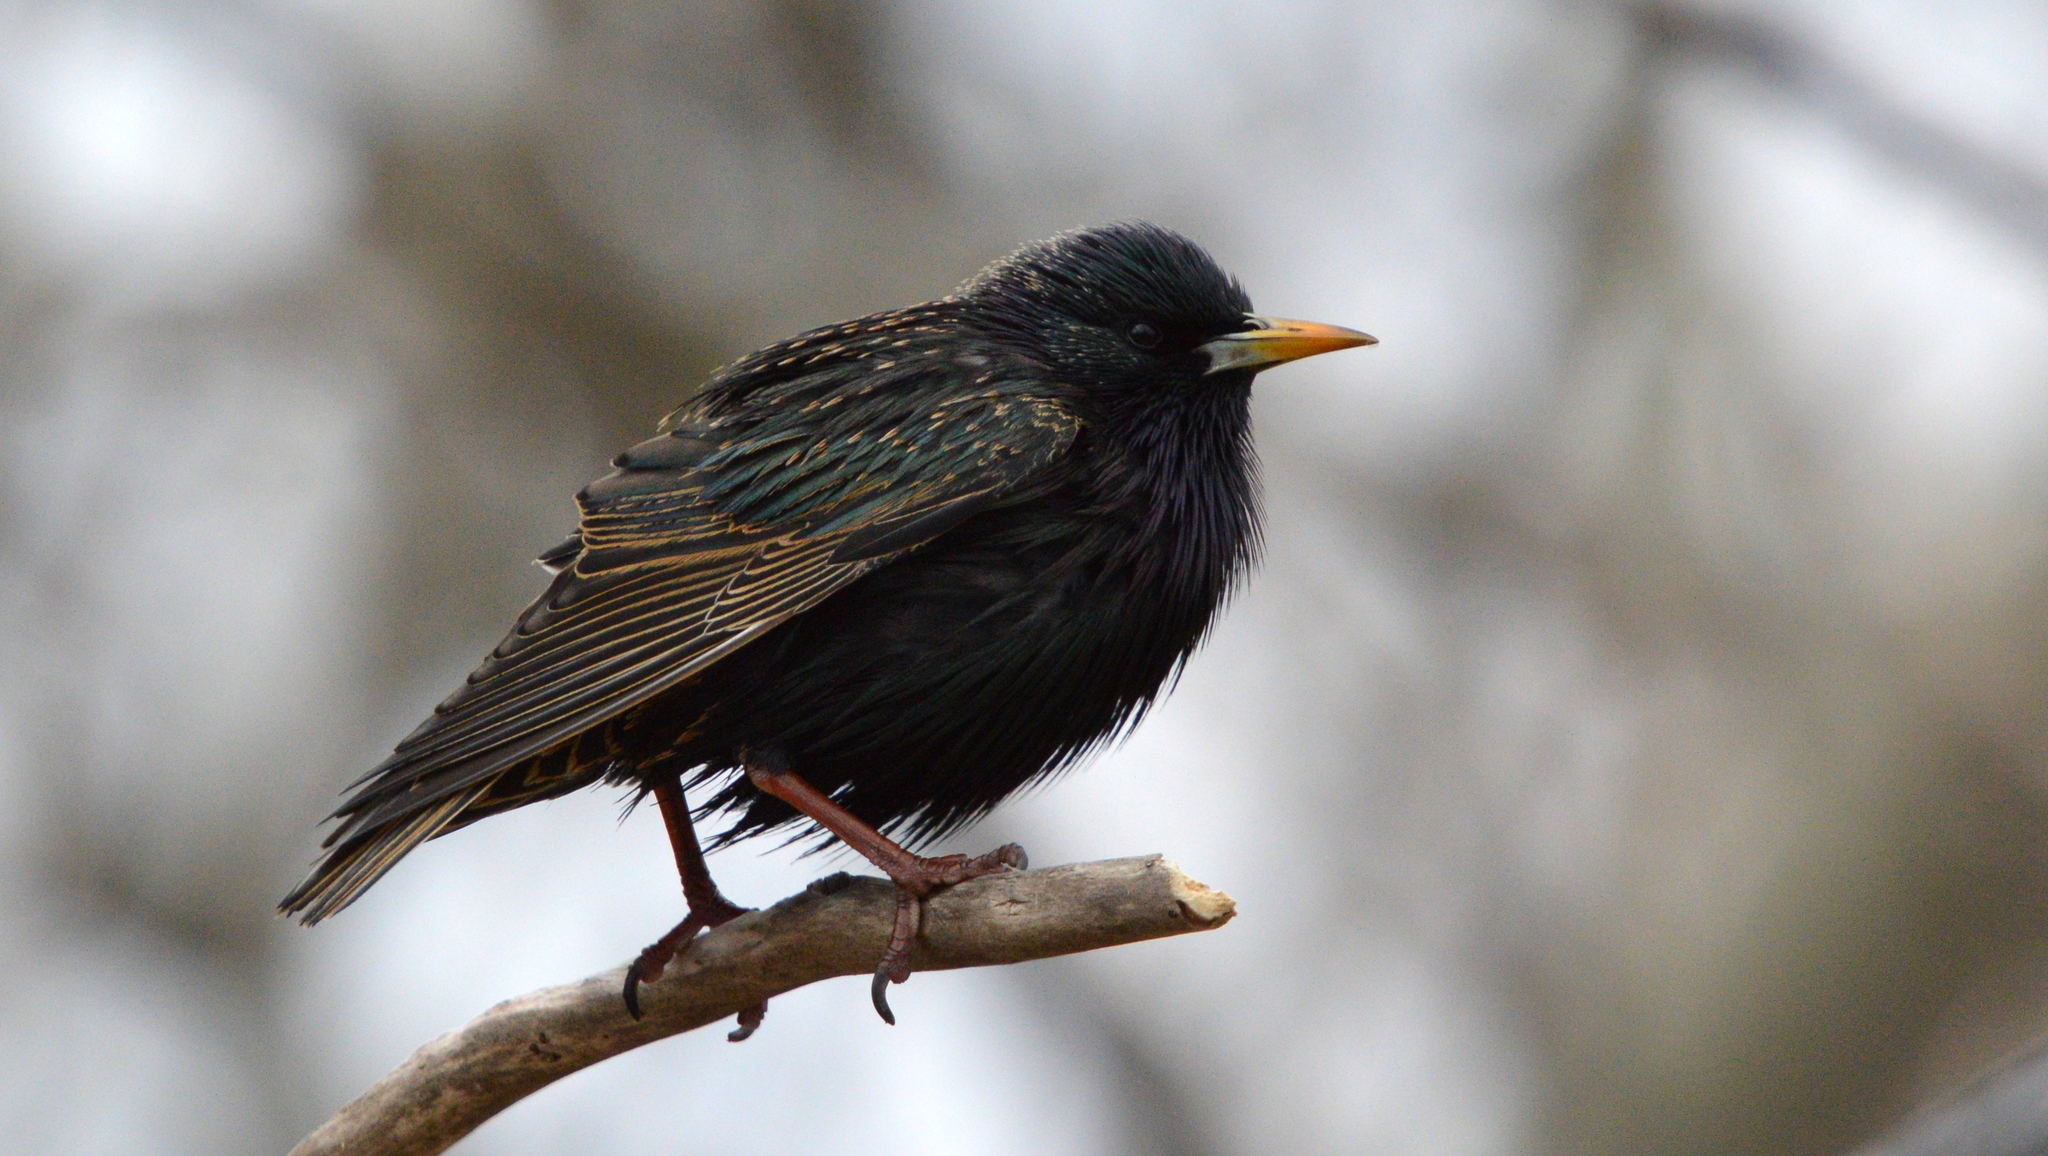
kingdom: Animalia
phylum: Chordata
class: Aves
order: Passeriformes
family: Sturnidae
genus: Sturnus
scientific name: Sturnus vulgaris
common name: Common starling
